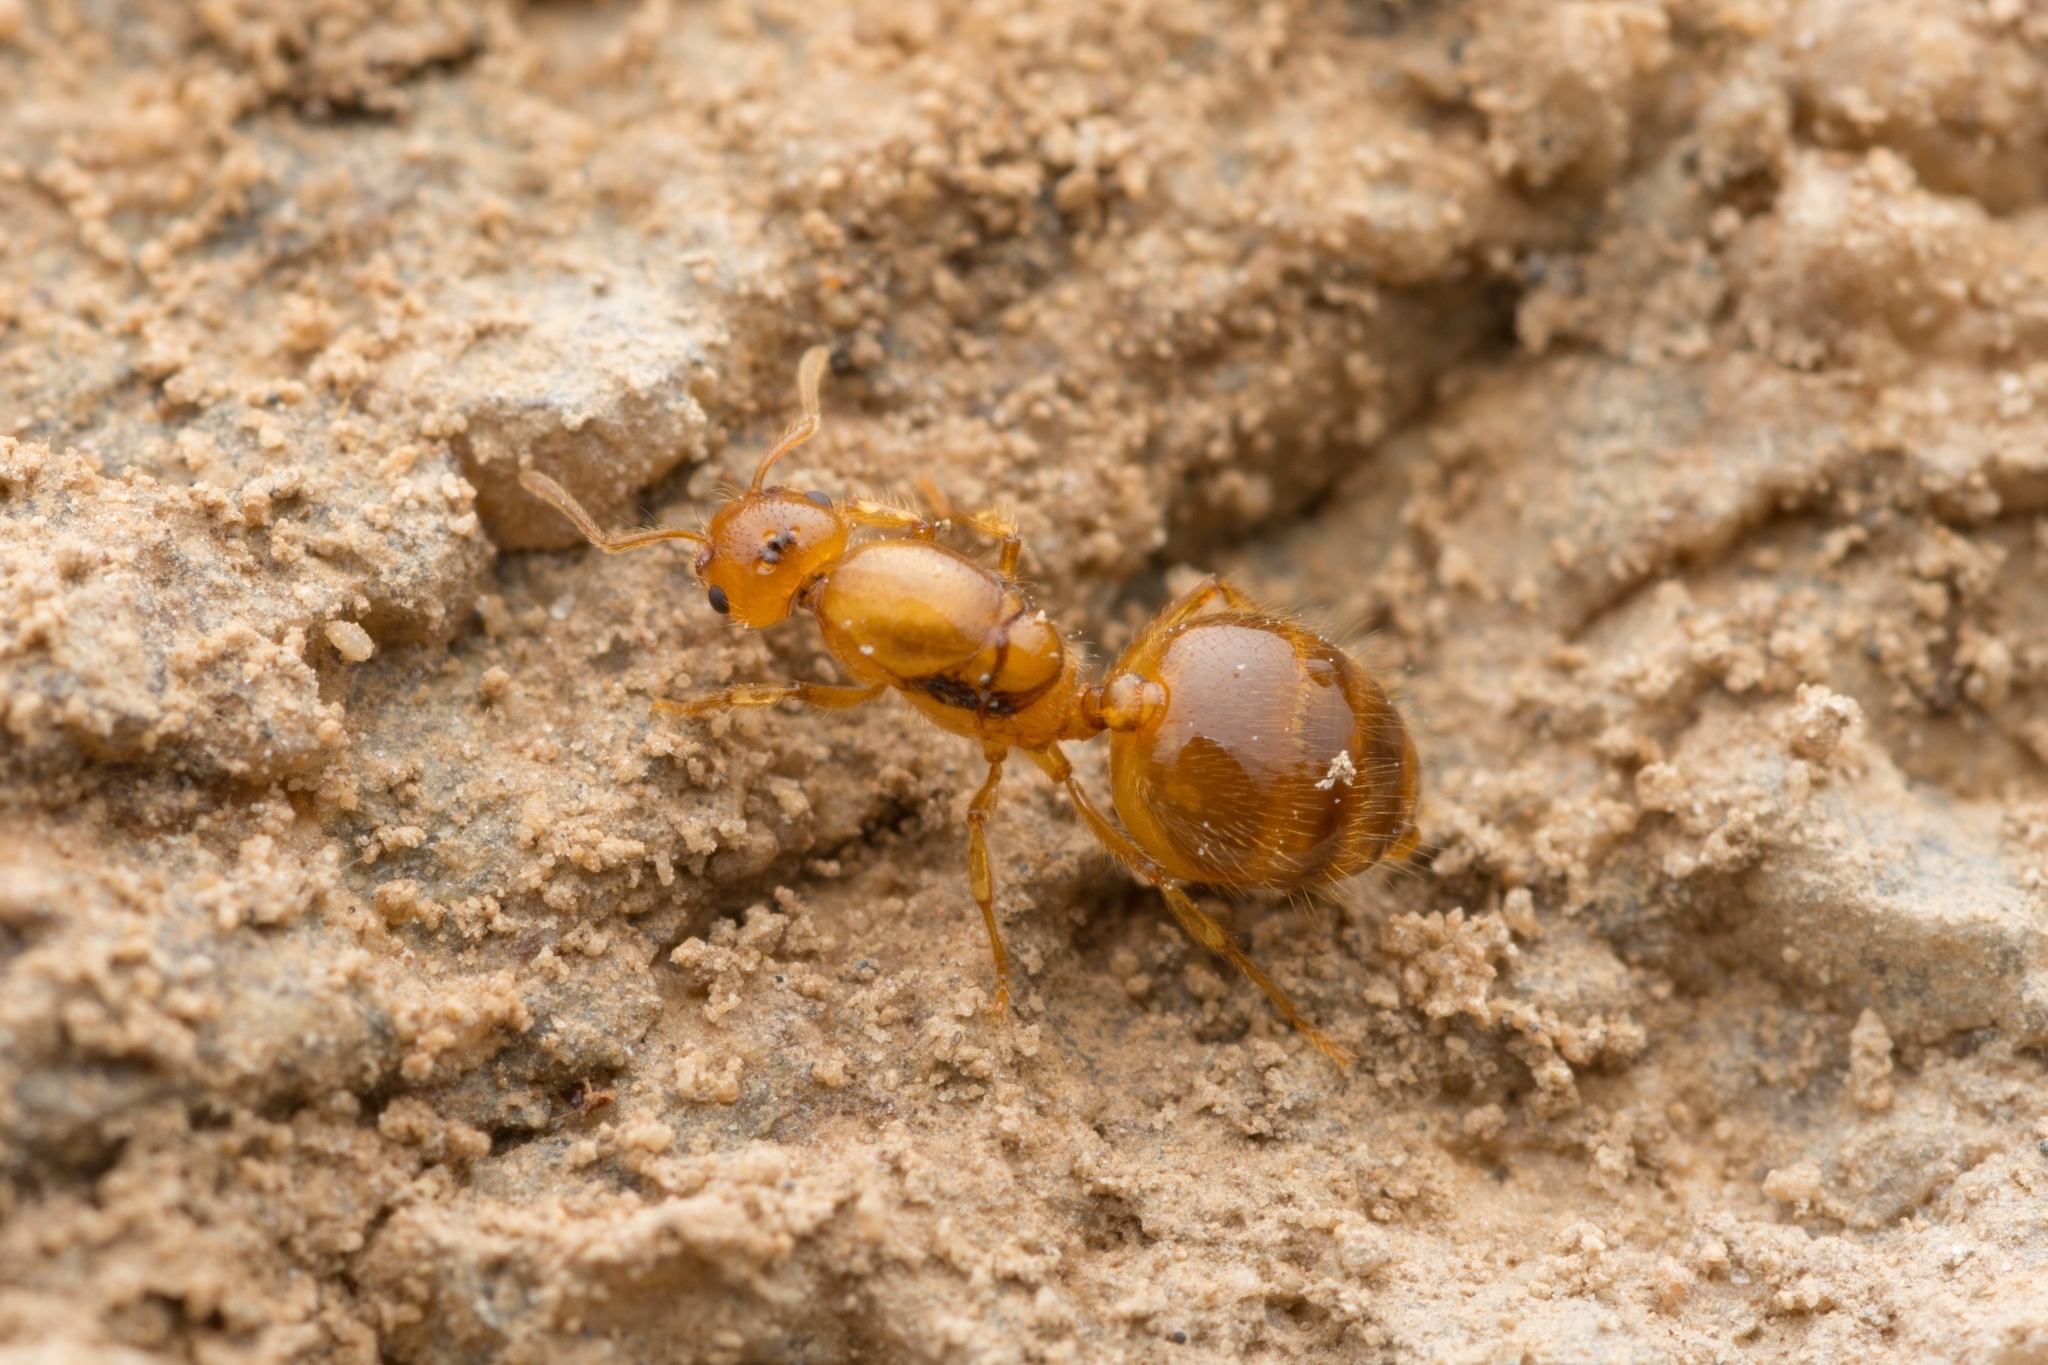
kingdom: Animalia
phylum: Arthropoda
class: Insecta
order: Hymenoptera
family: Formicidae
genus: Crematogaster
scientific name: Crematogaster osakensis
